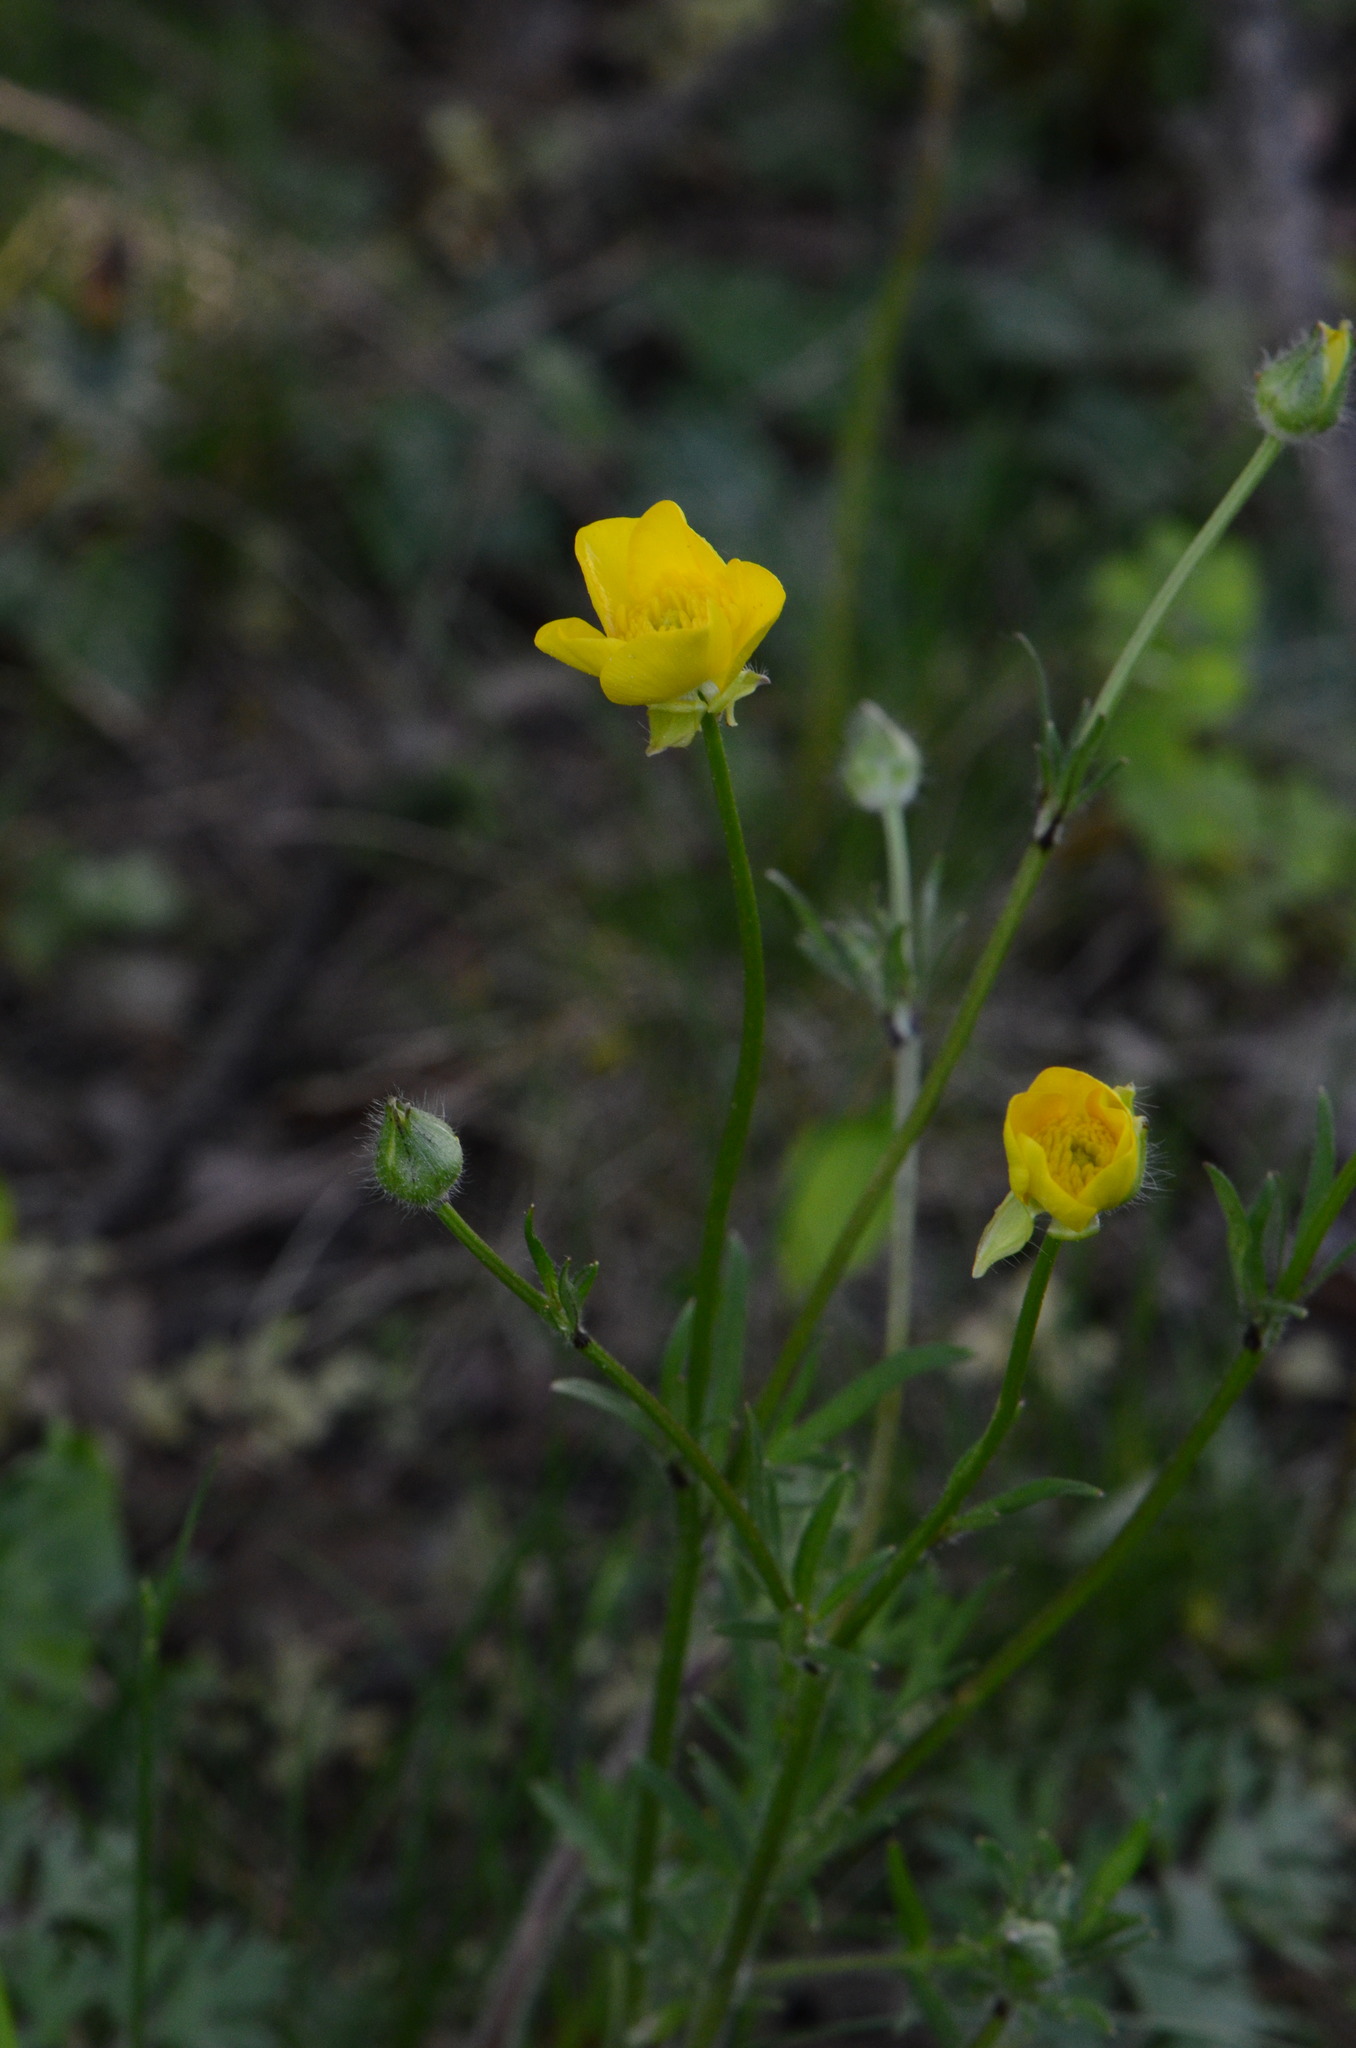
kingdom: Plantae
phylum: Tracheophyta
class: Magnoliopsida
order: Ranunculales
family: Ranunculaceae
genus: Ranunculus
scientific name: Ranunculus bulbosus
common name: Bulbous buttercup
